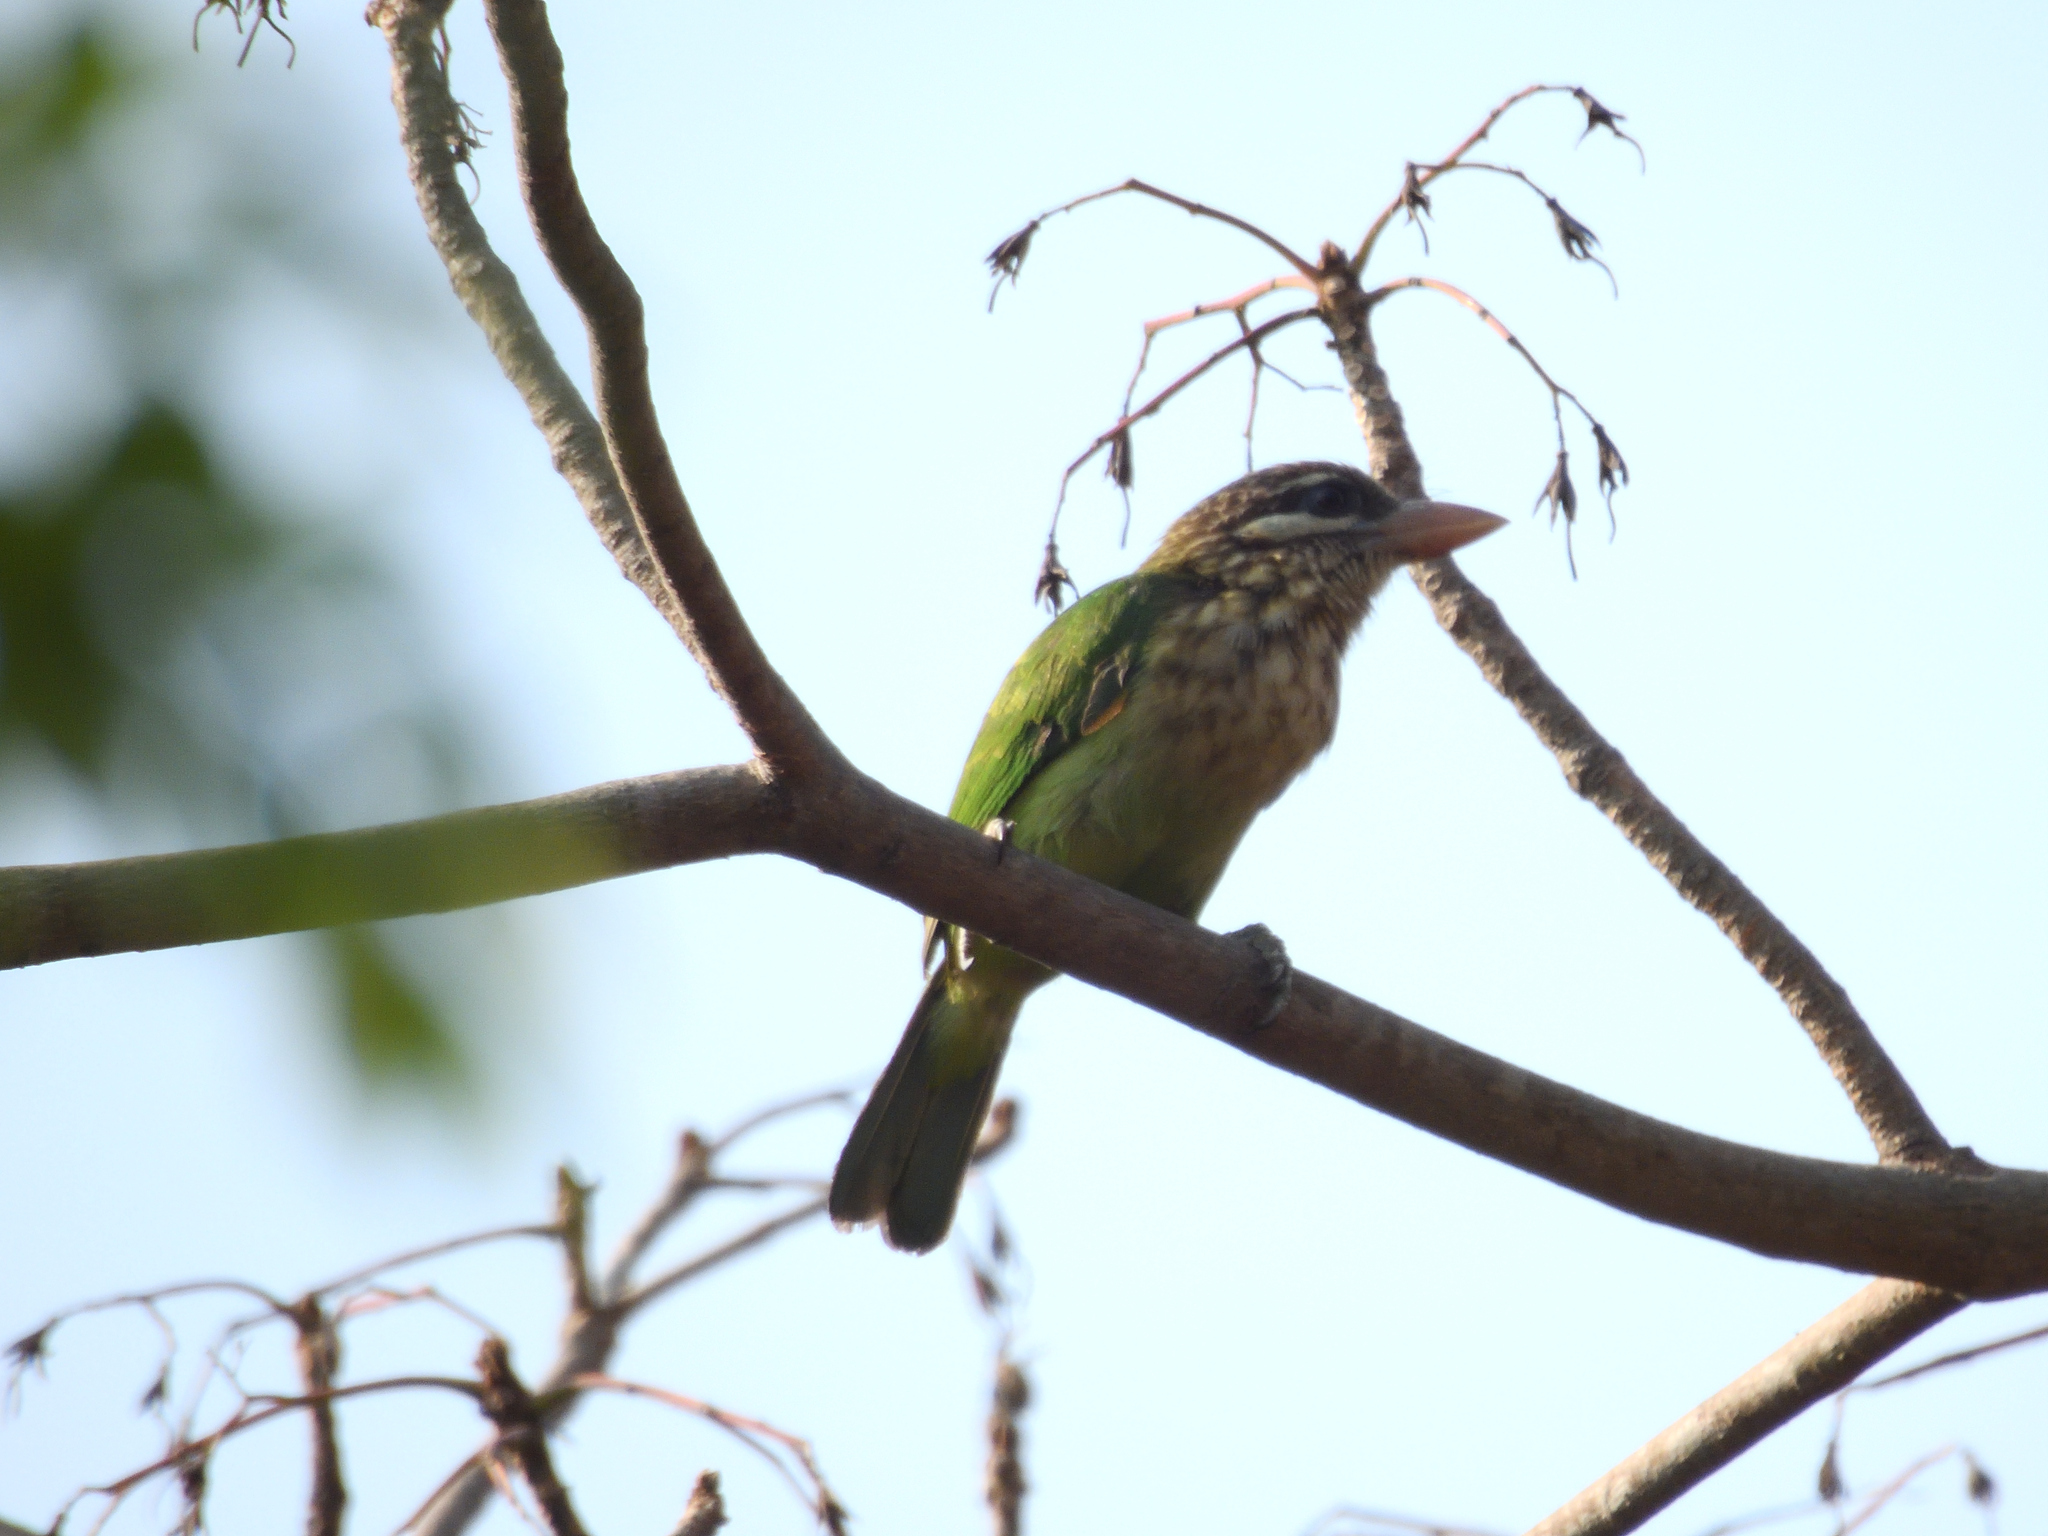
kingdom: Animalia
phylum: Chordata
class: Aves
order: Piciformes
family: Megalaimidae
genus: Psilopogon
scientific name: Psilopogon viridis
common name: White-cheeked barbet
